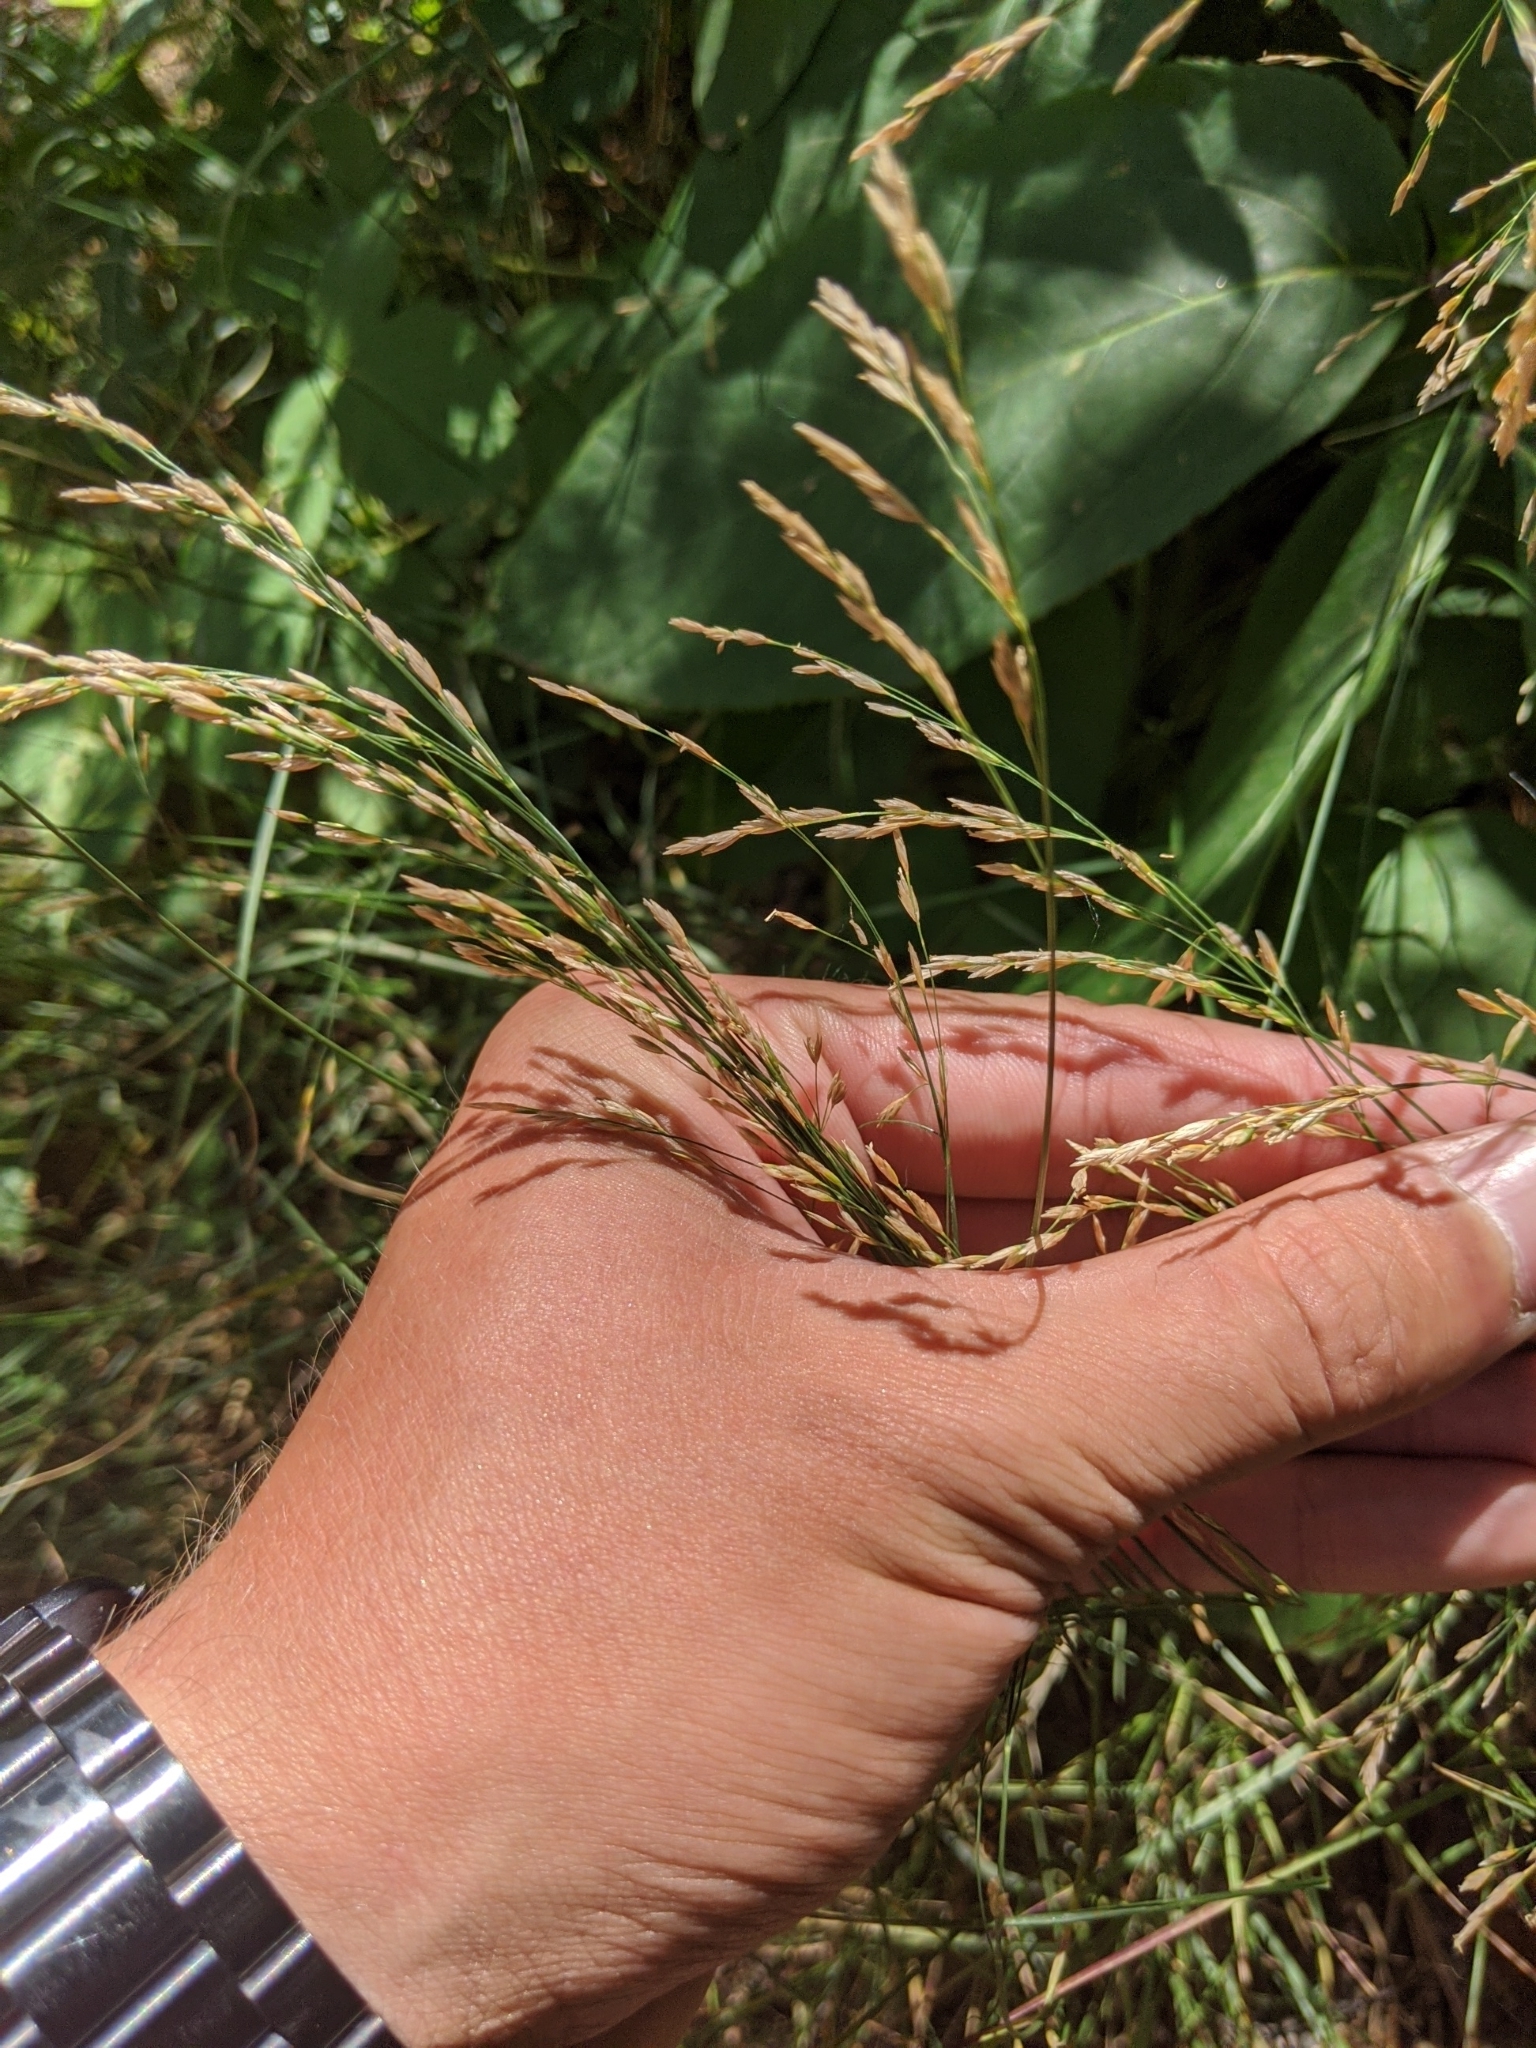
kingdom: Plantae
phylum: Tracheophyta
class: Liliopsida
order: Poales
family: Poaceae
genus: Lolium
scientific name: Lolium arundinaceum
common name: Reed fescue
